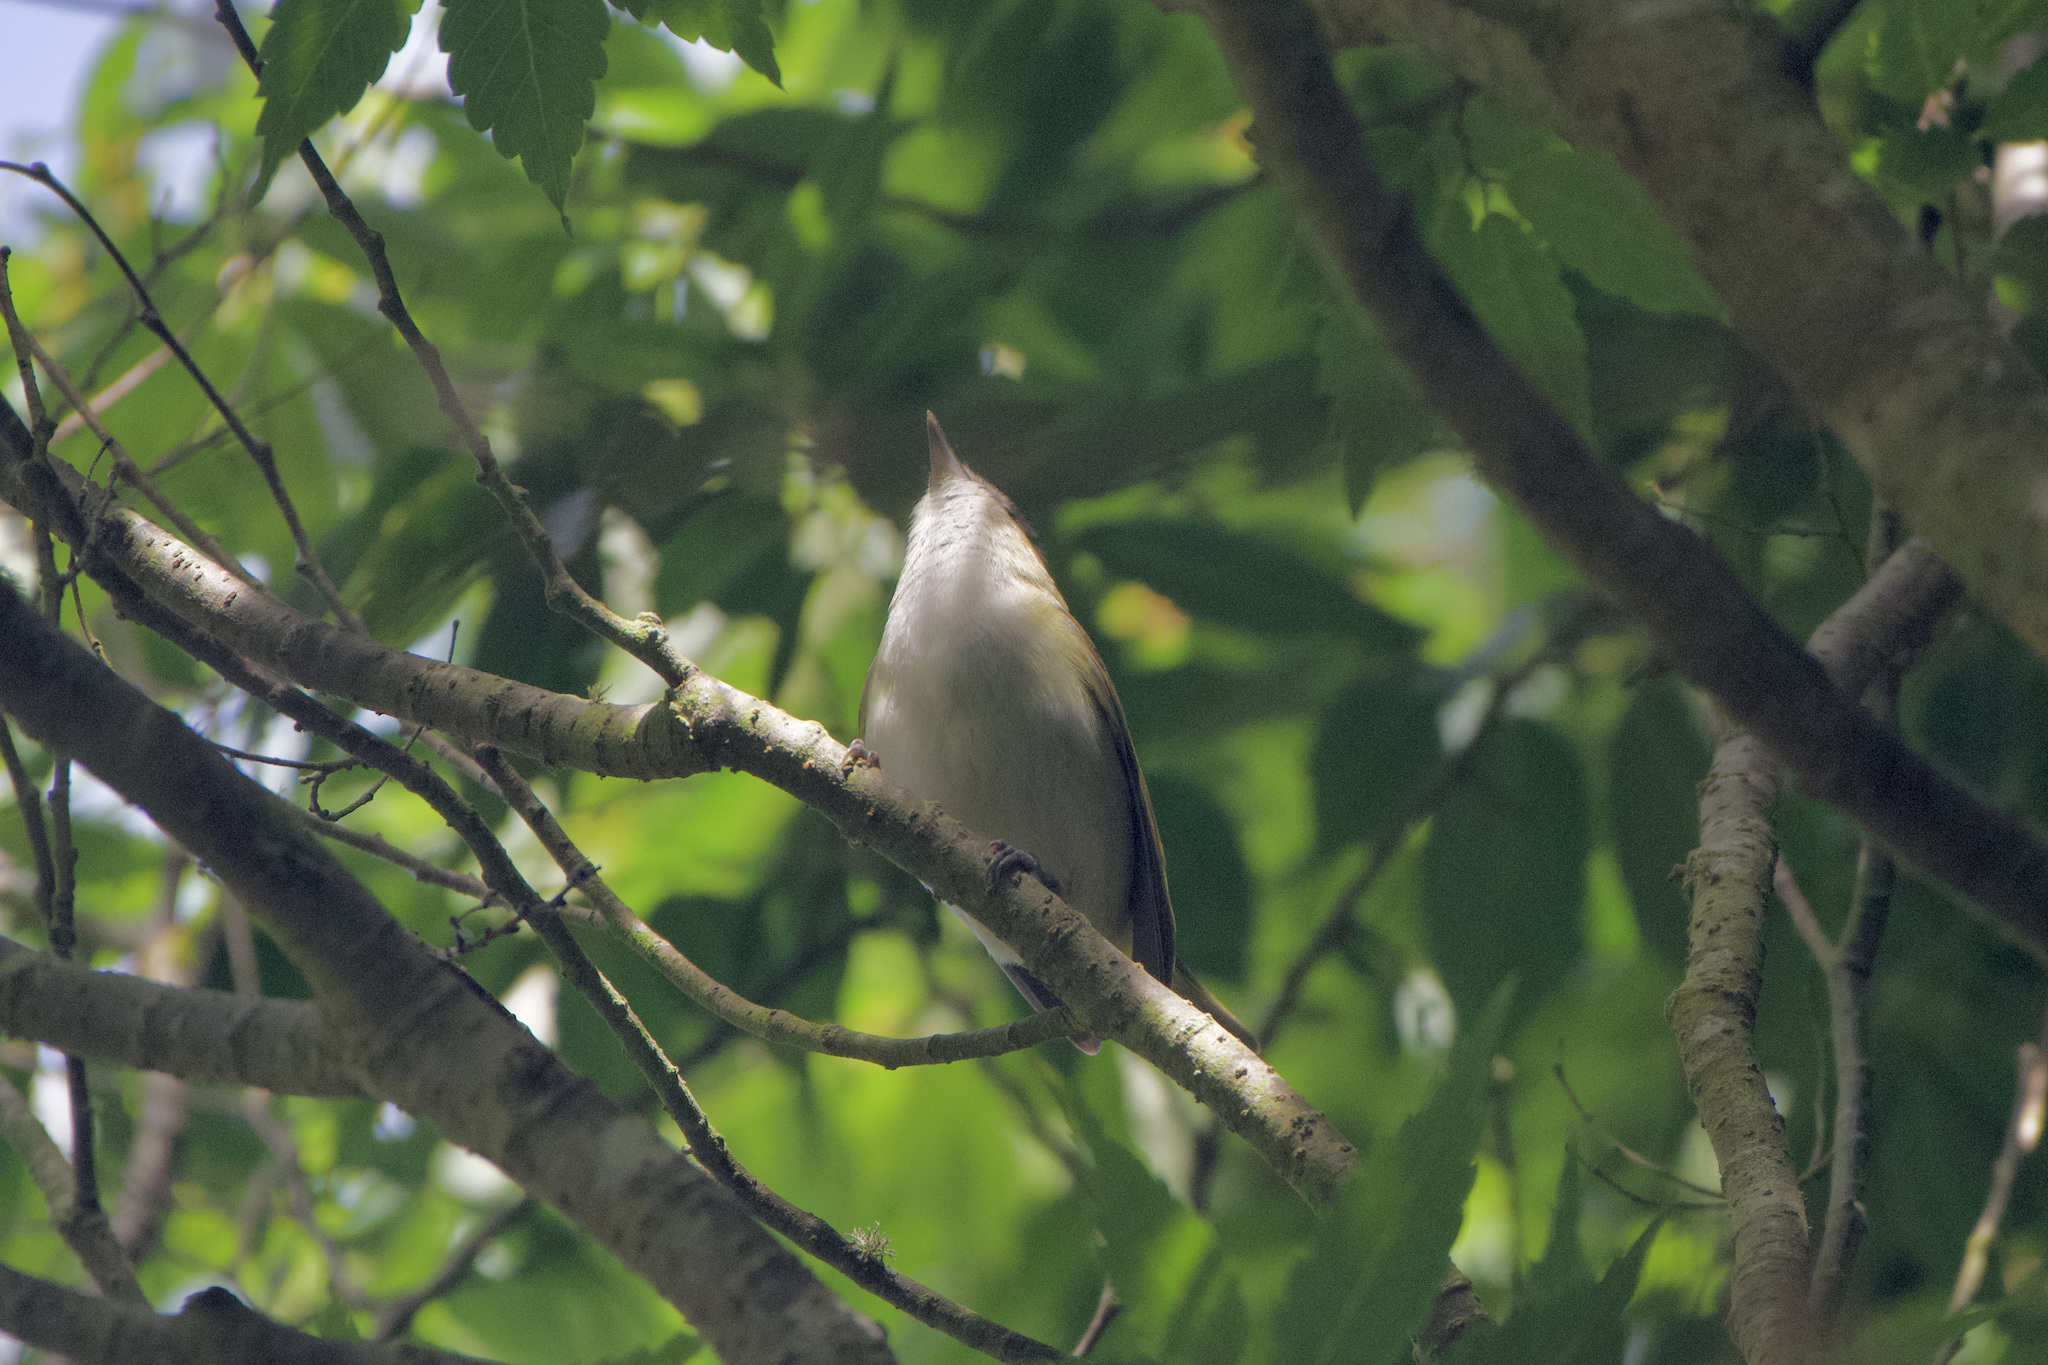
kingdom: Animalia
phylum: Chordata
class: Aves
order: Passeriformes
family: Parulidae
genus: Setophaga
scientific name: Setophaga pensylvanica
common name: Chestnut-sided warbler
